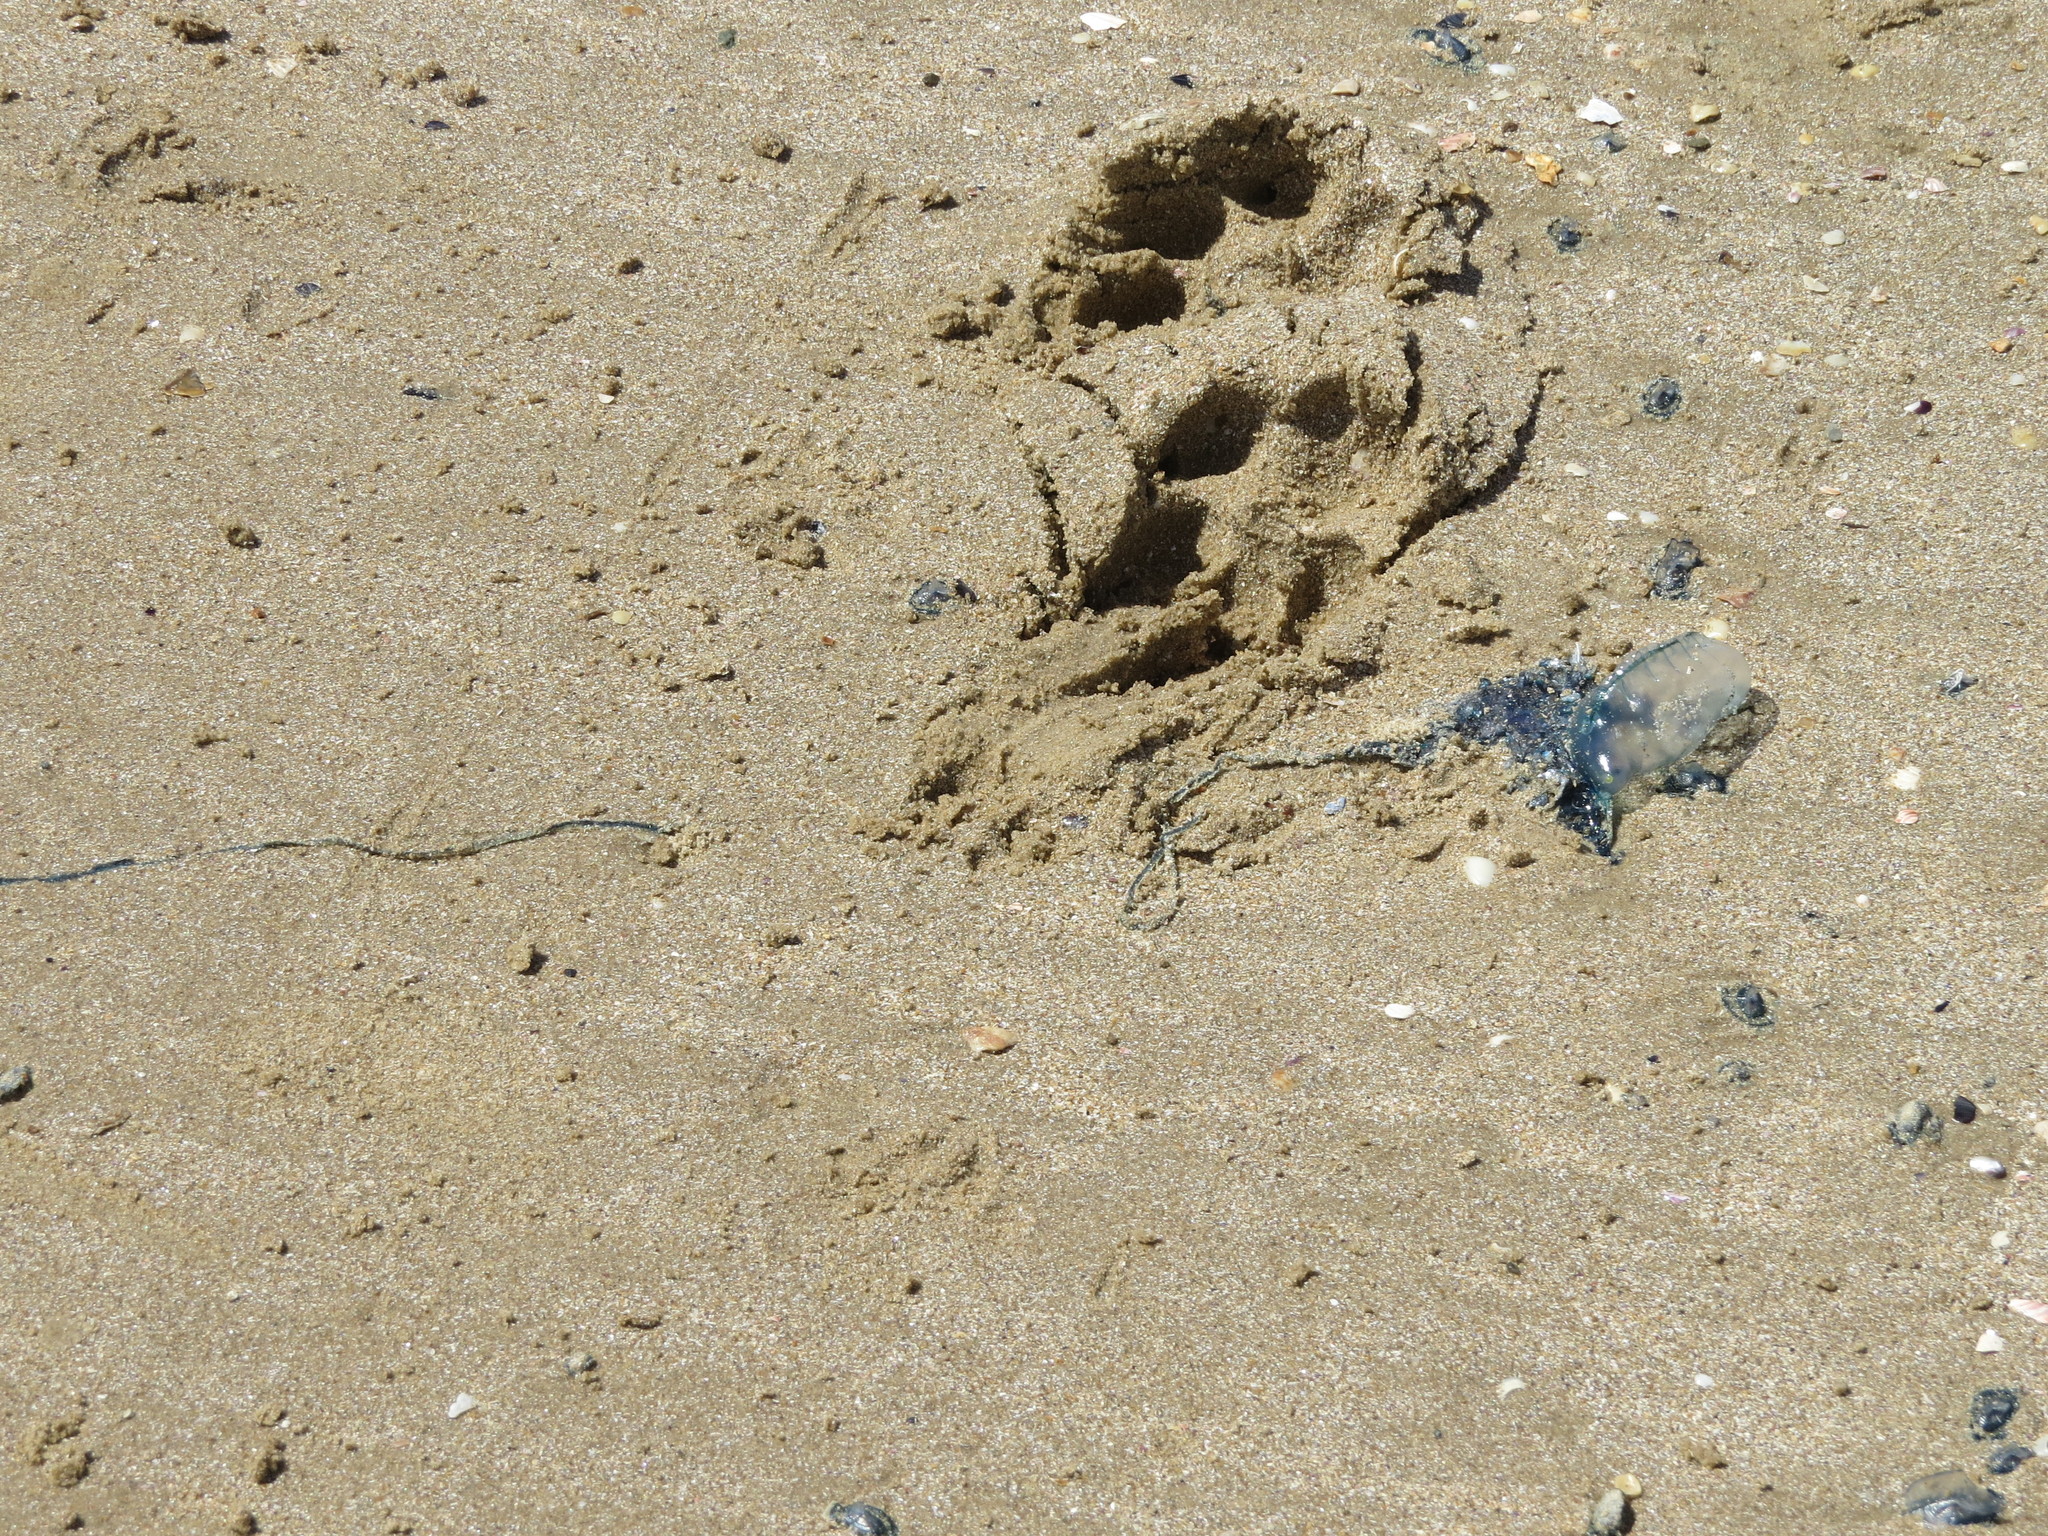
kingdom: Animalia
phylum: Cnidaria
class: Hydrozoa
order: Siphonophorae
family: Physaliidae
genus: Physalia
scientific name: Physalia physalis
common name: Portuguese man-of-war
